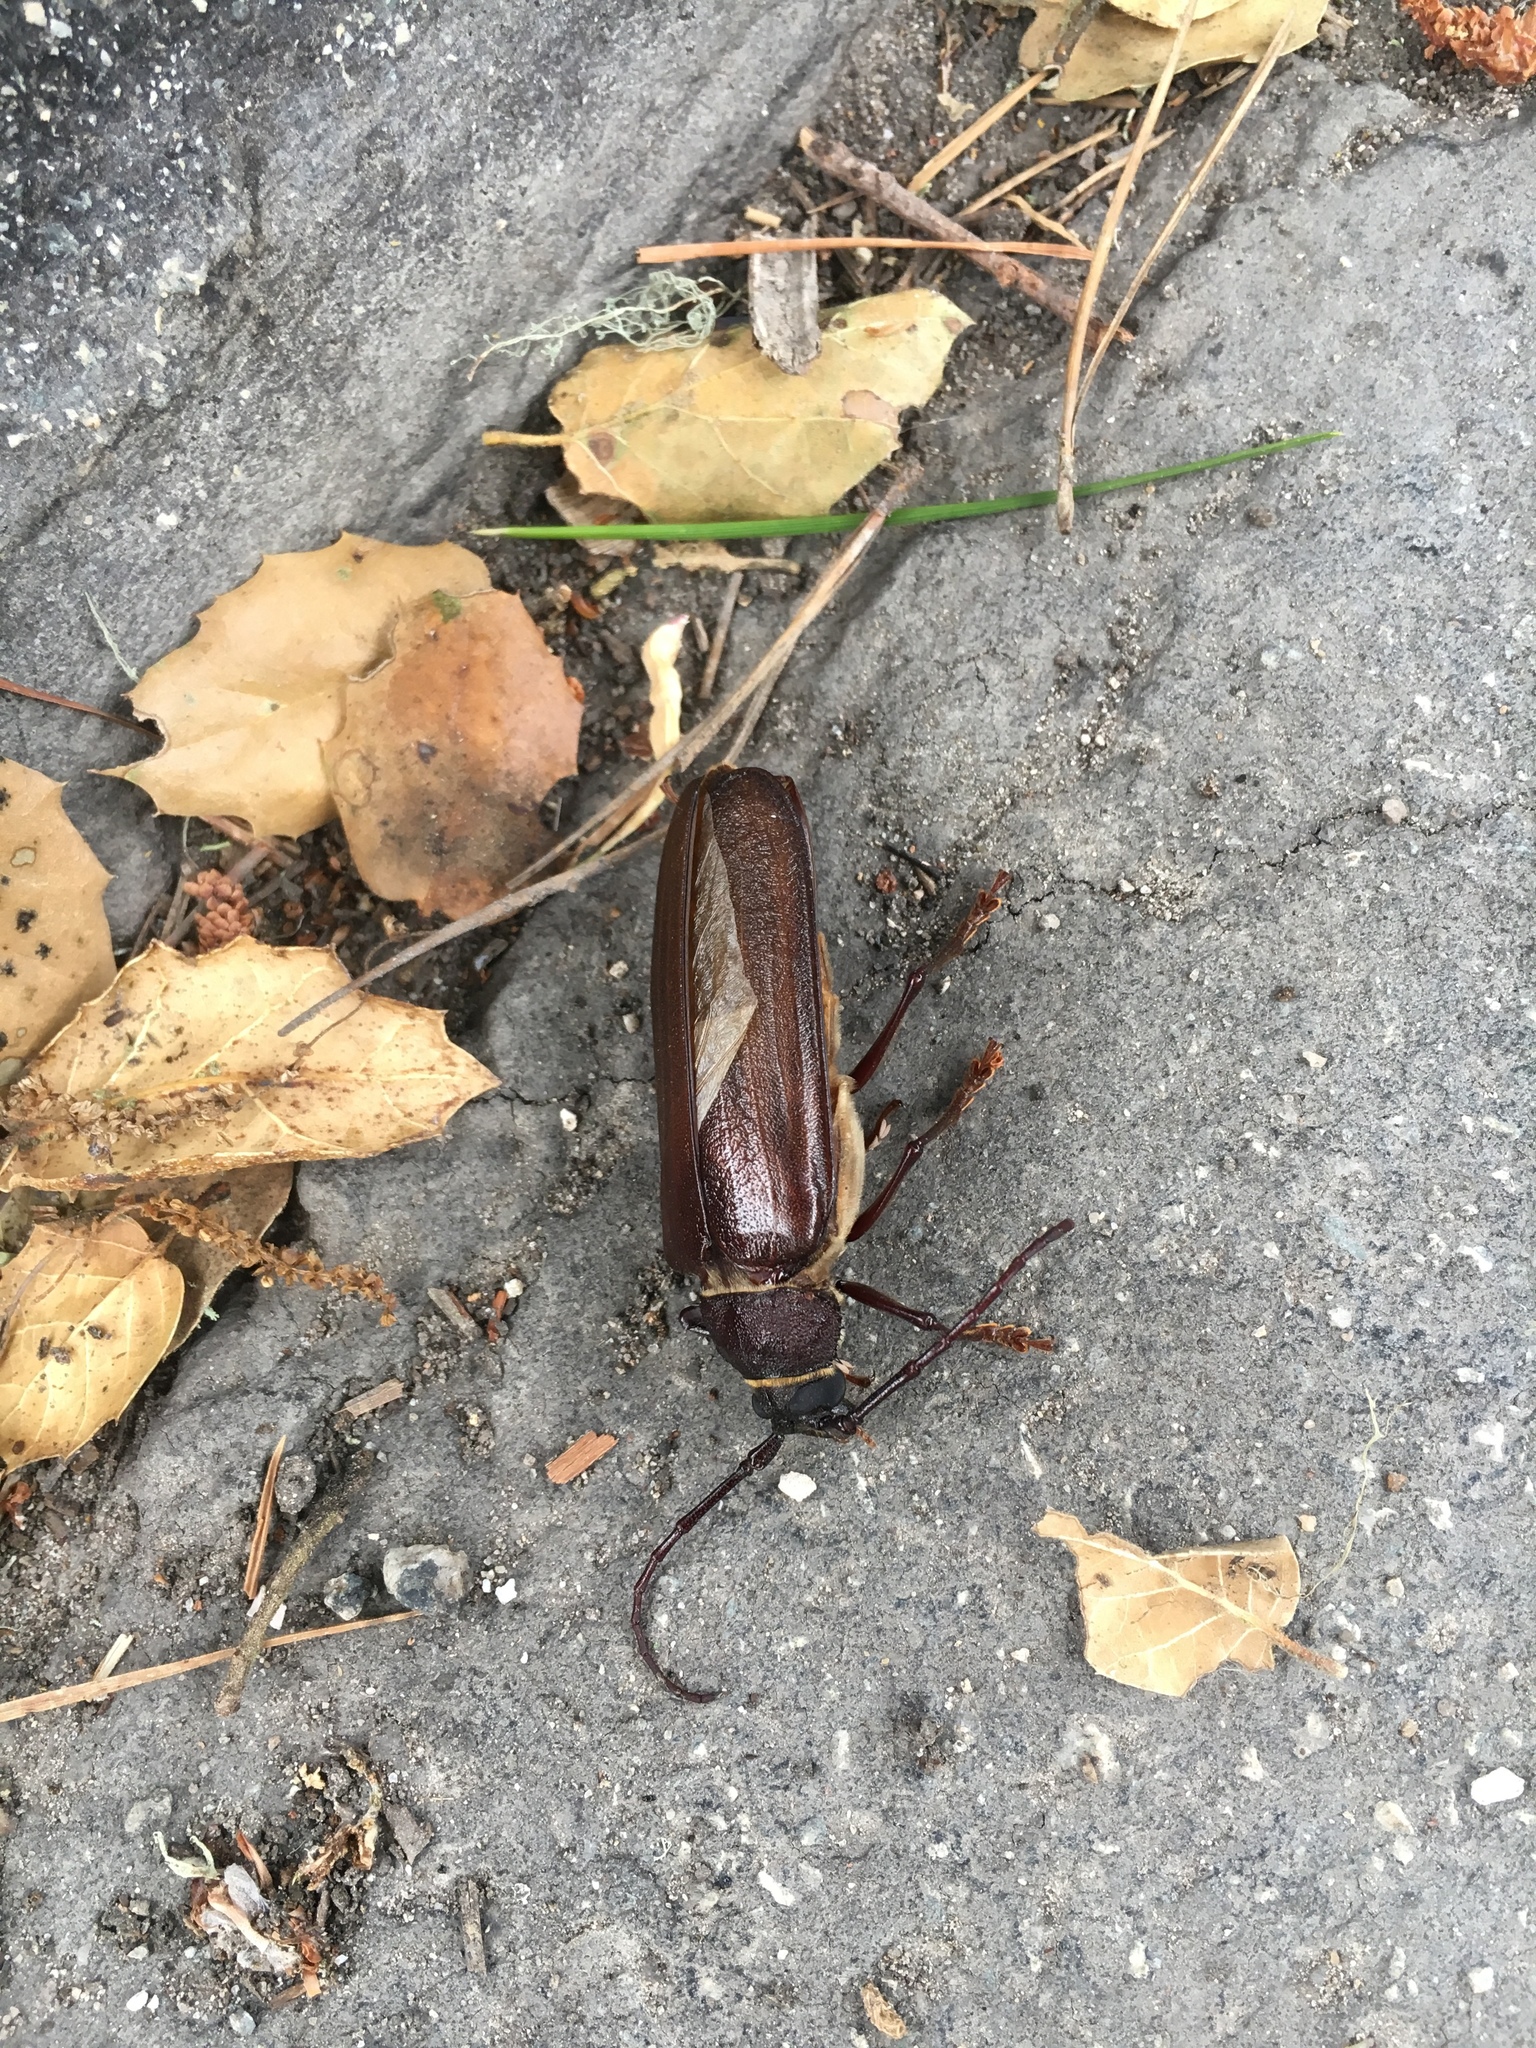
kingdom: Animalia
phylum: Arthropoda
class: Insecta
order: Coleoptera
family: Cerambycidae
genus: Trichocnemis
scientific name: Trichocnemis spiculatus
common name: Long-horned beetle
